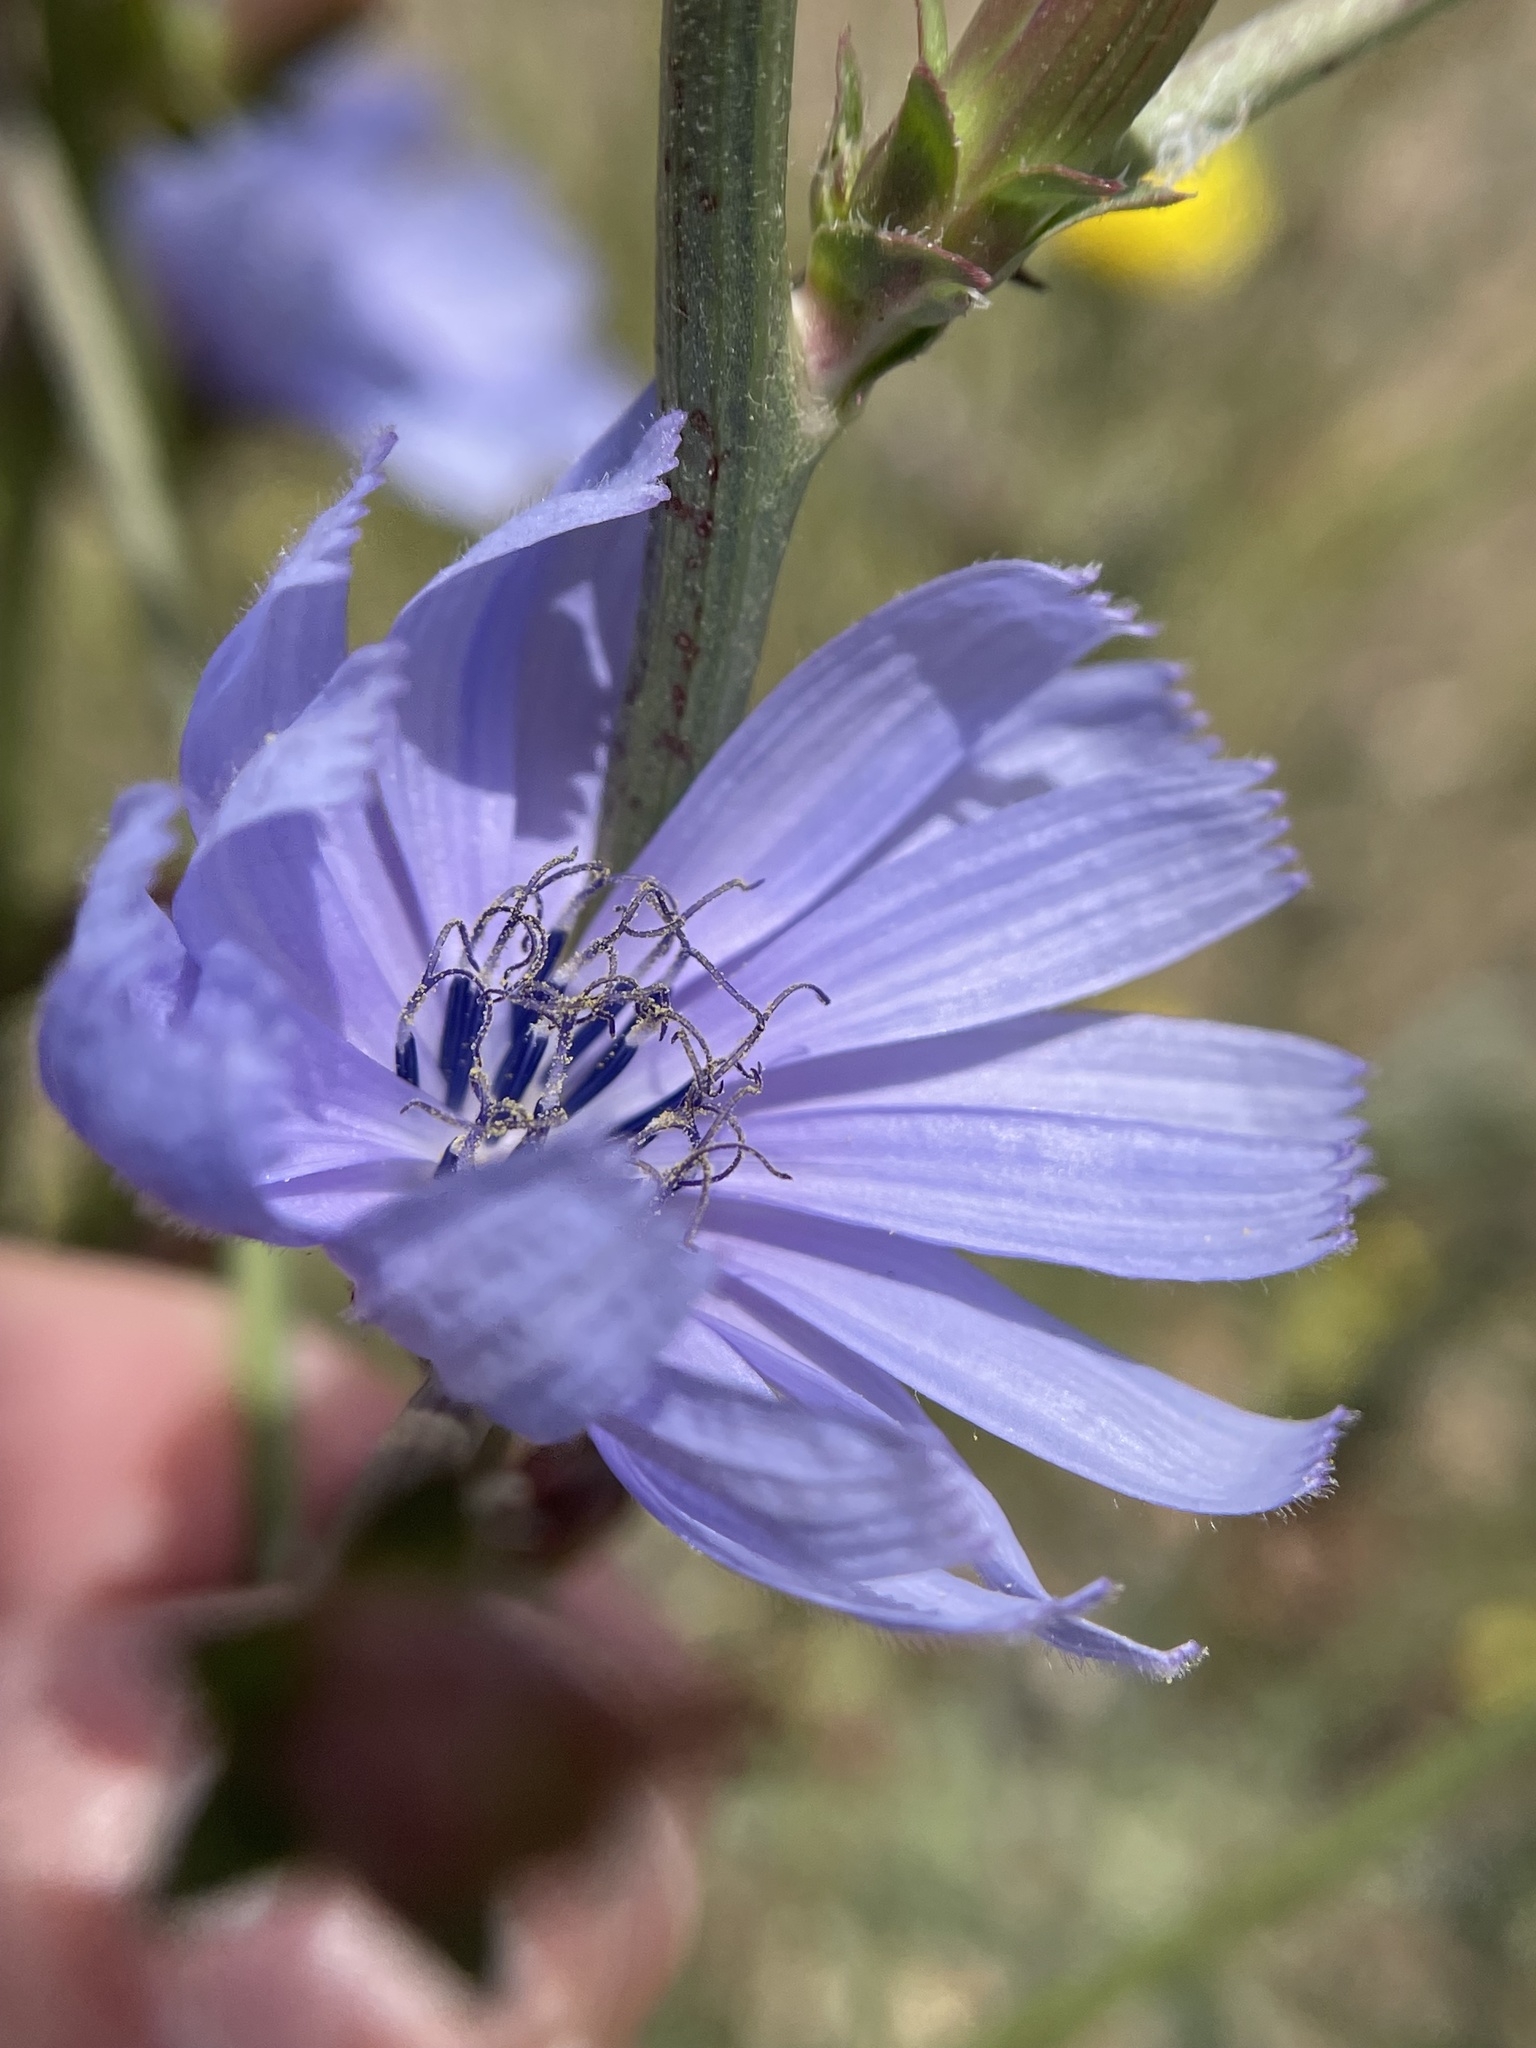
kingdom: Plantae
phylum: Tracheophyta
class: Magnoliopsida
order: Asterales
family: Asteraceae
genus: Cichorium
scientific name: Cichorium intybus
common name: Chicory
